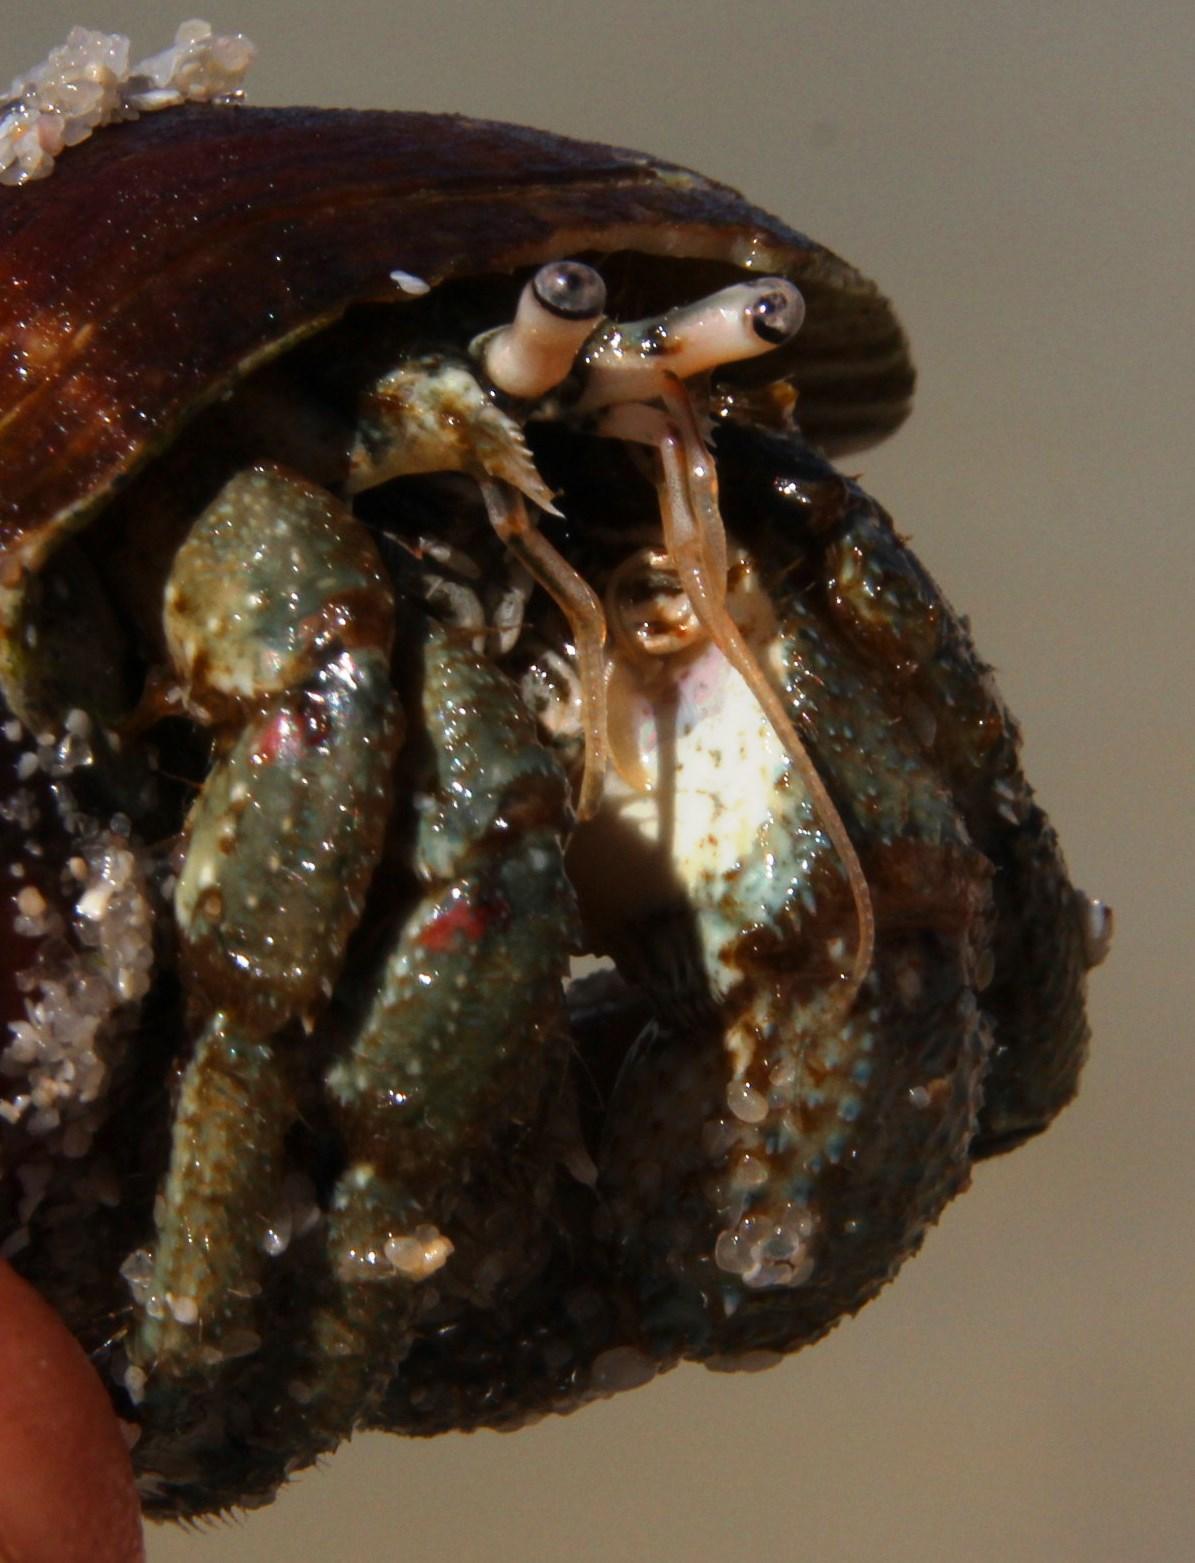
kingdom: Animalia
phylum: Arthropoda
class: Malacostraca
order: Decapoda
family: Diogenidae
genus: Diogenes
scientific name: Diogenes brevirostris
